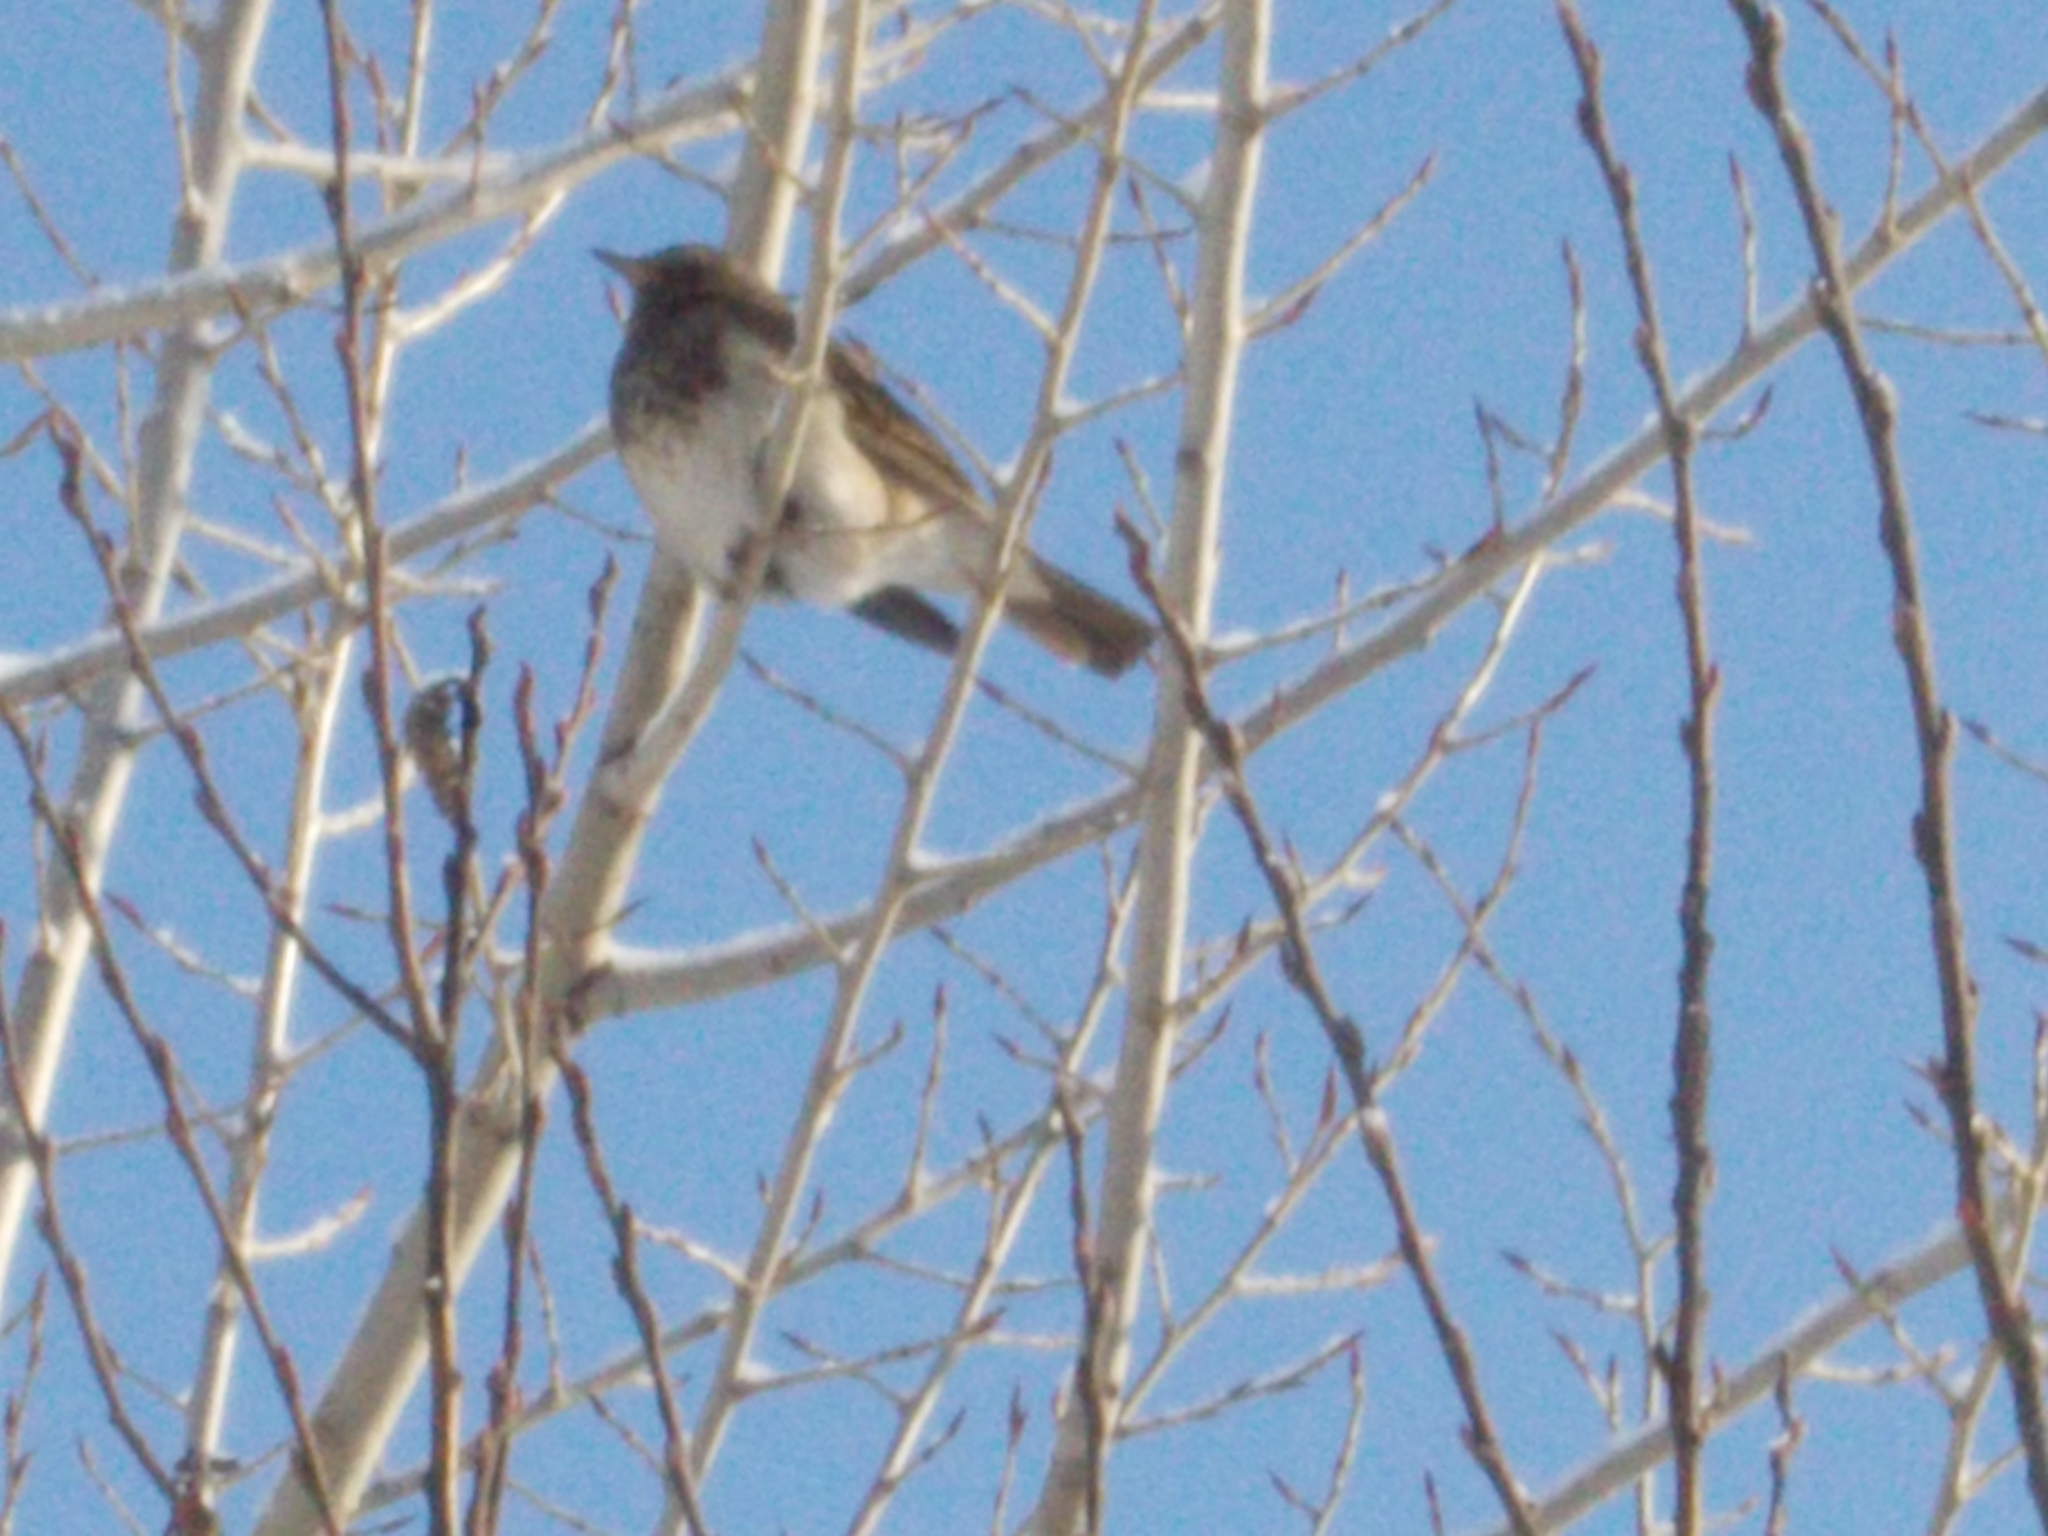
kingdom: Animalia
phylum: Chordata
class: Aves
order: Passeriformes
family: Turdidae
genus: Turdus
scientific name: Turdus atrogularis
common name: Black-throated thrush
